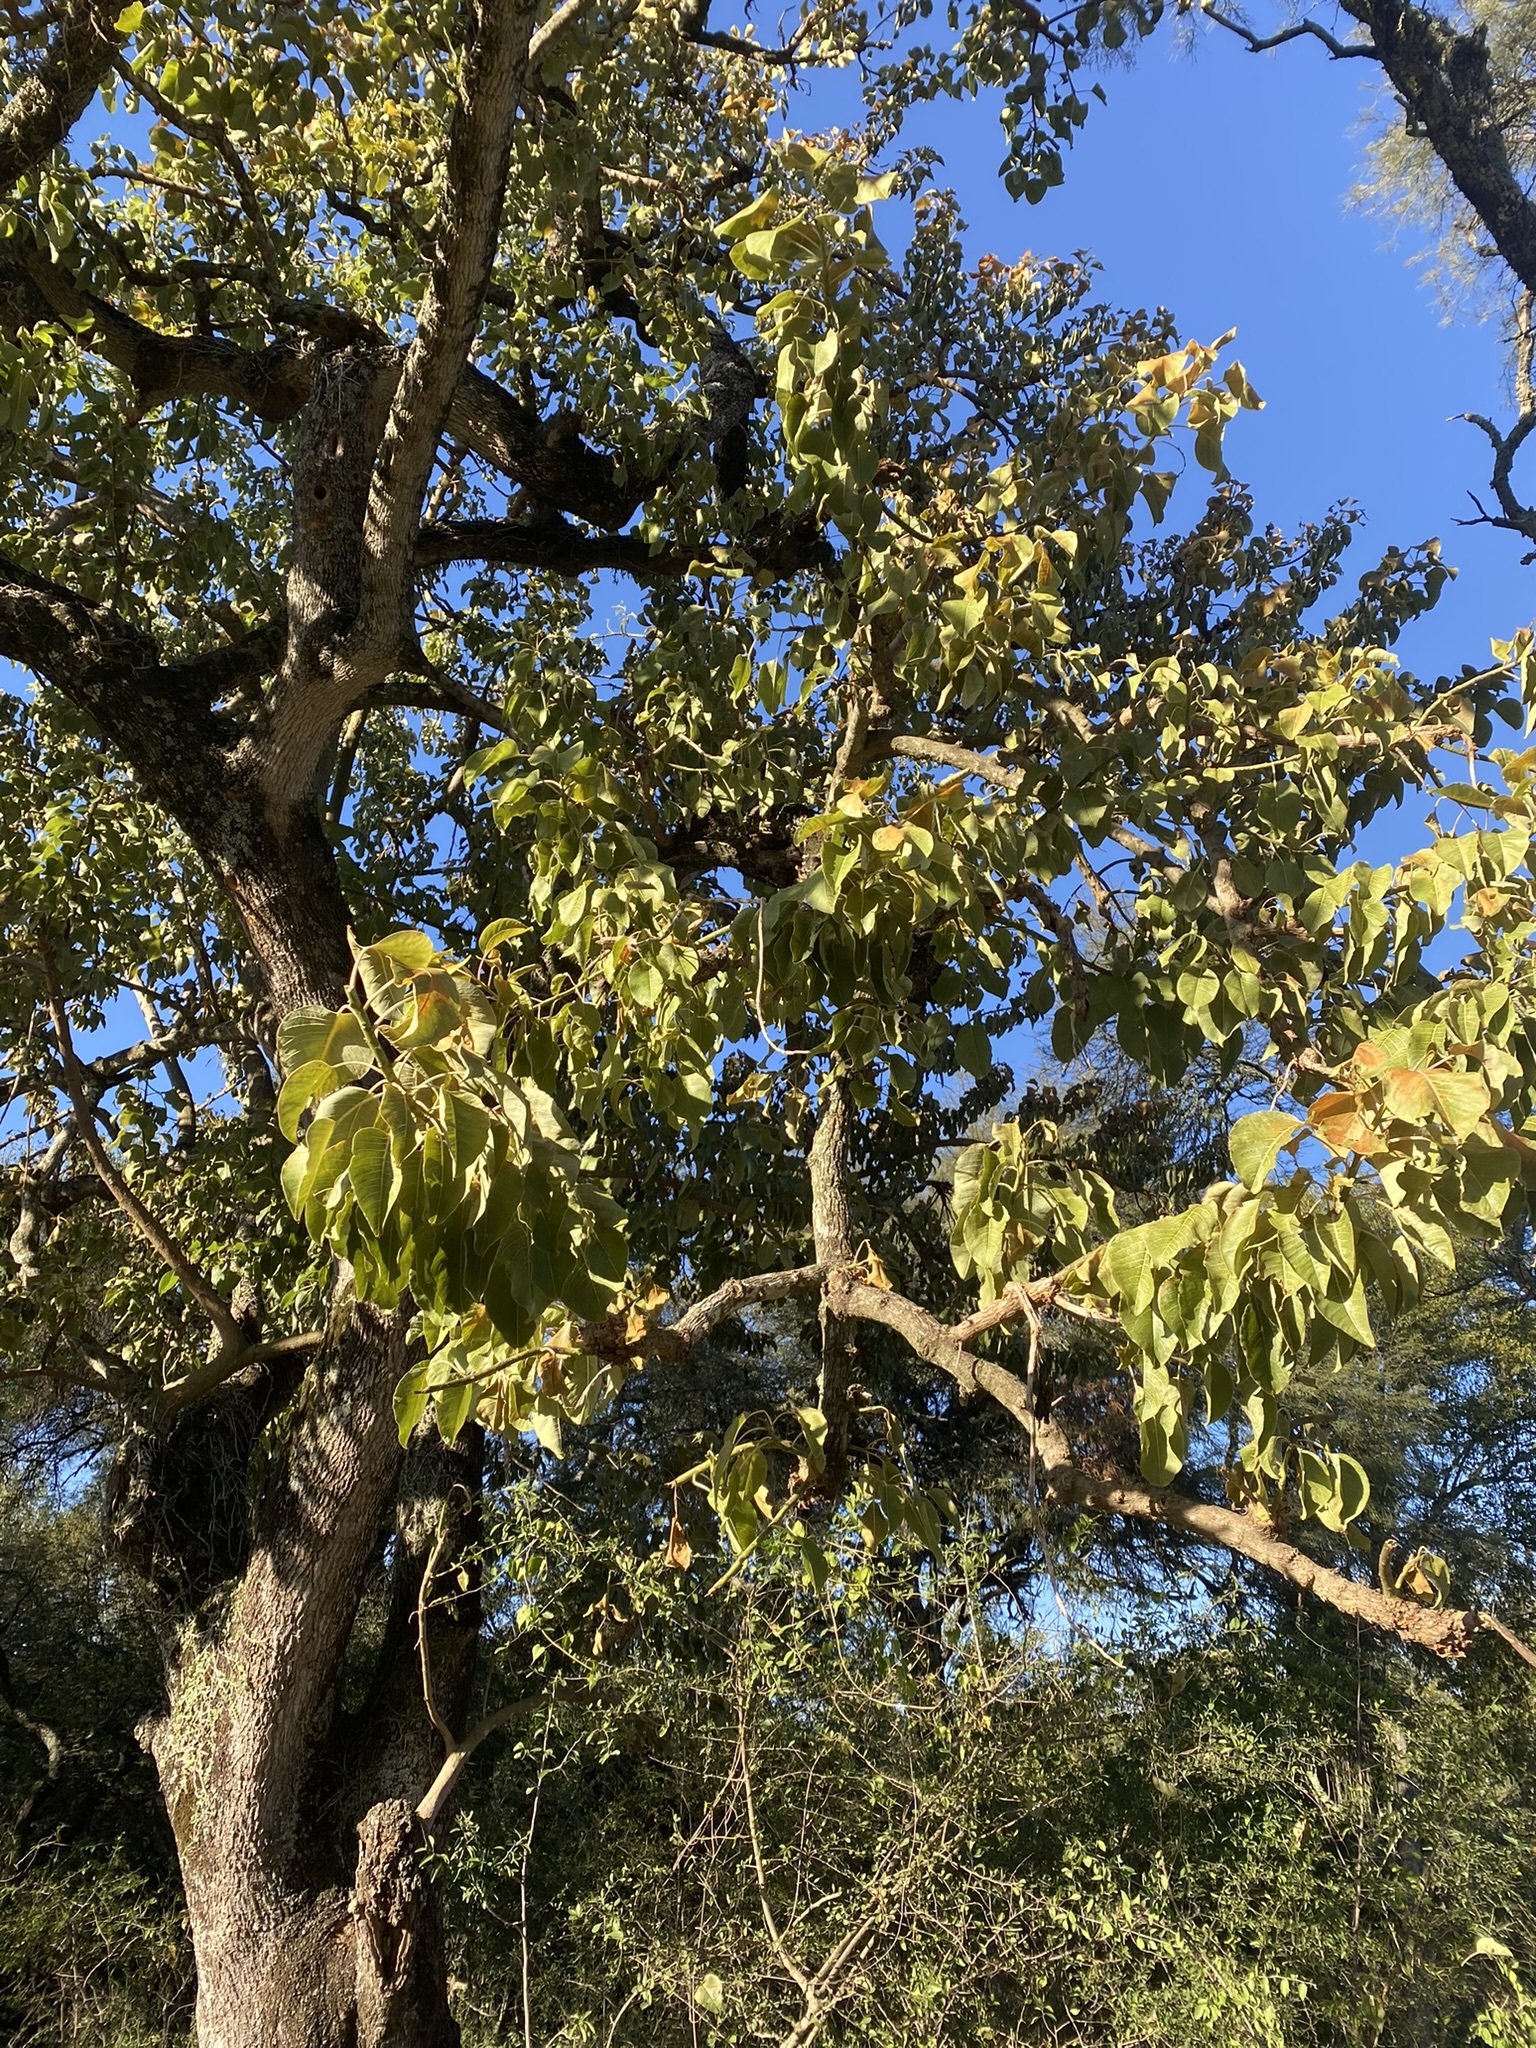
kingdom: Plantae
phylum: Tracheophyta
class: Magnoliopsida
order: Caryophyllales
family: Phytolaccaceae
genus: Phytolacca
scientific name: Phytolacca dioica
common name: Pokeweed
